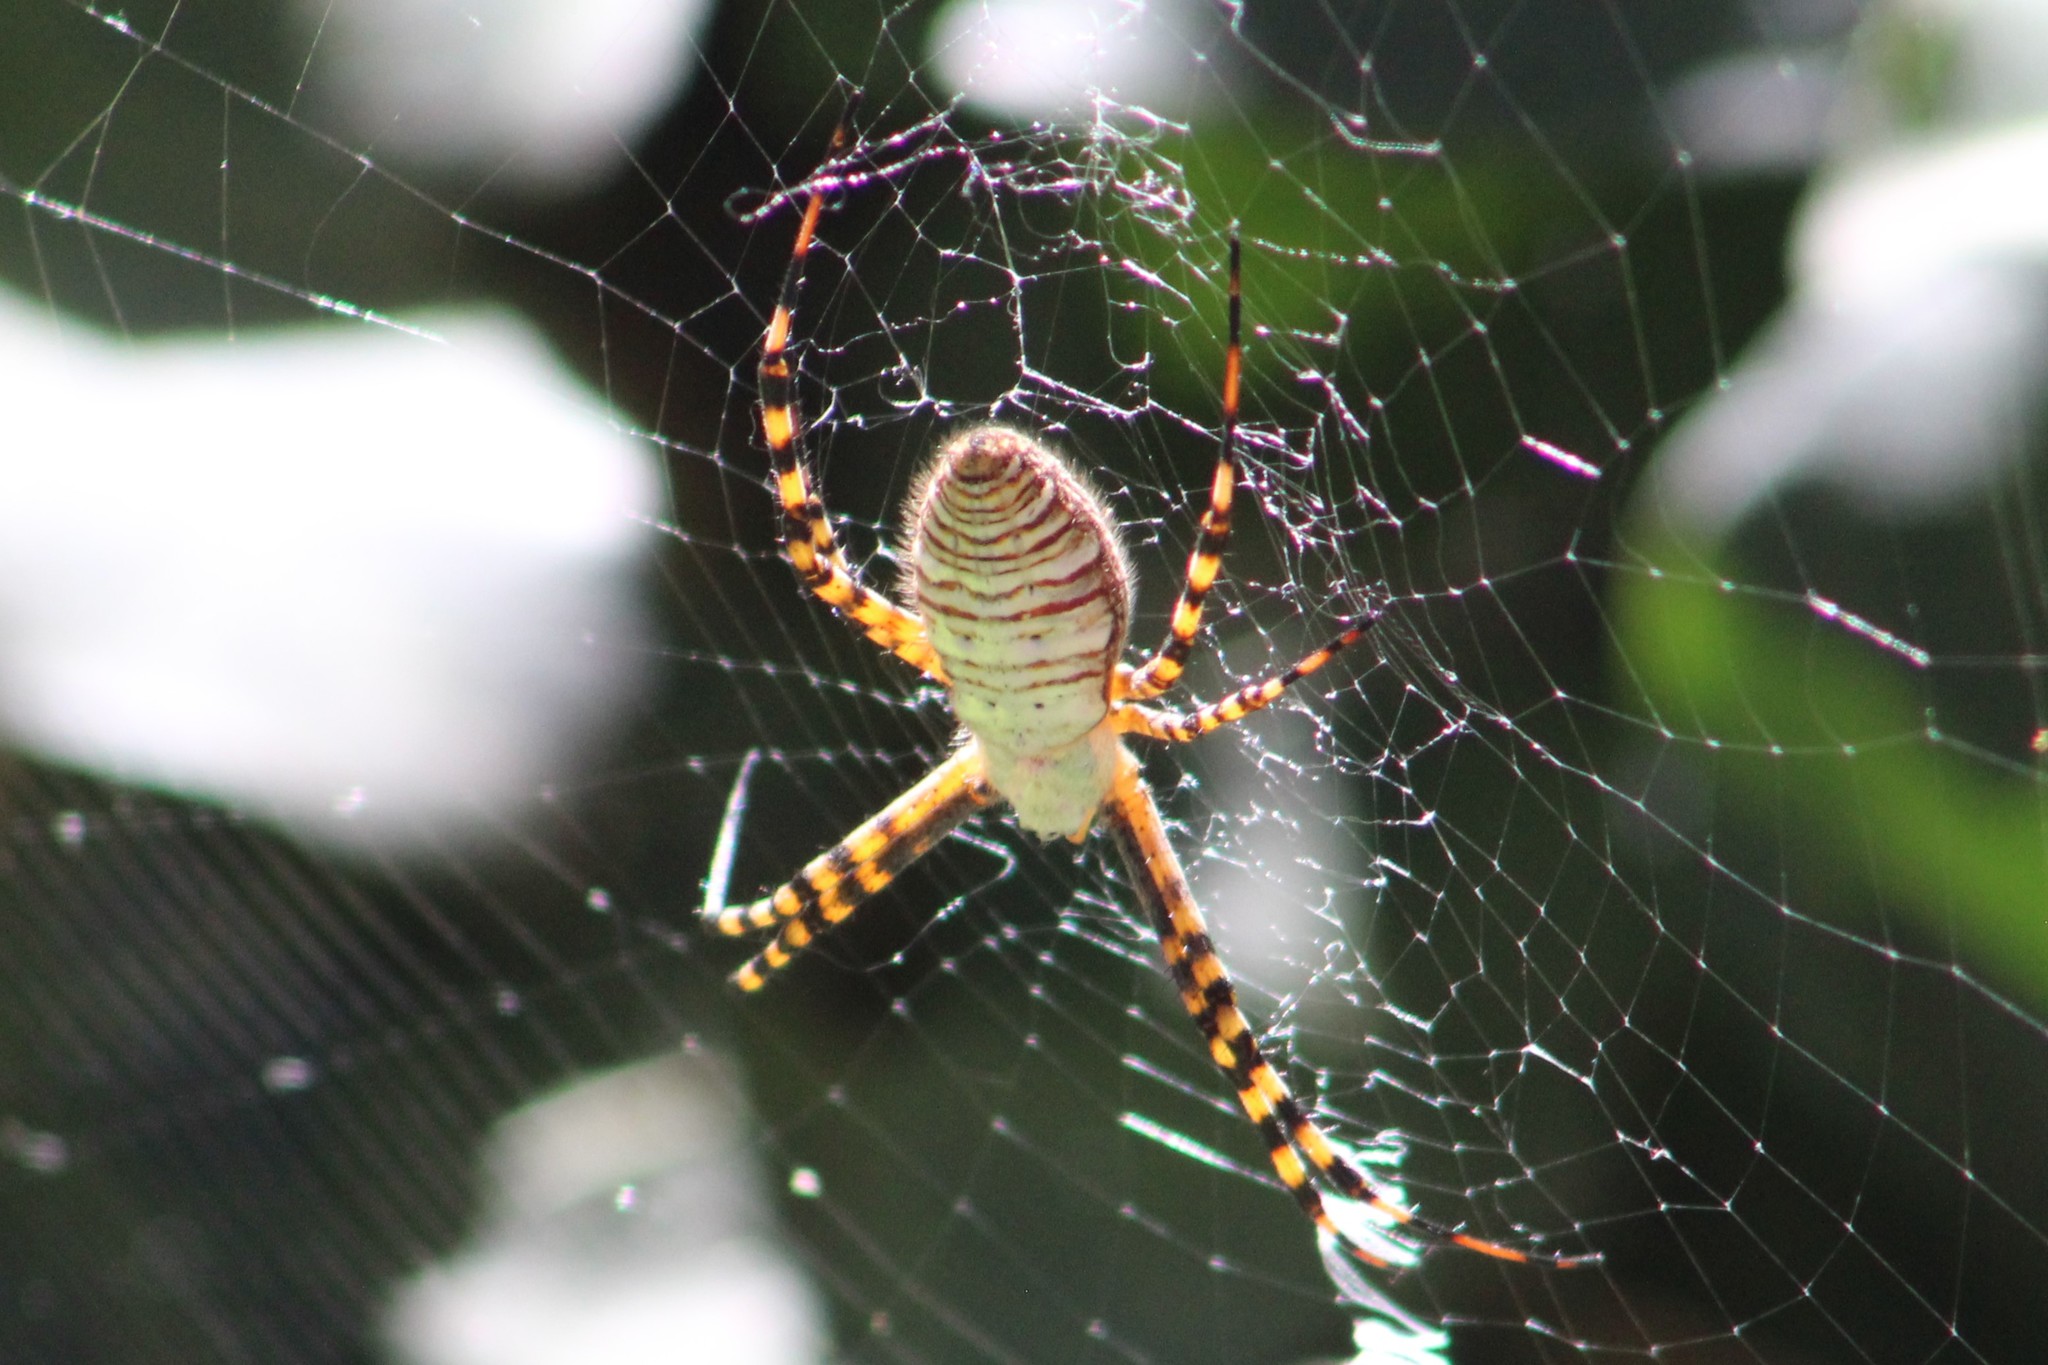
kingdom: Animalia
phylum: Arthropoda
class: Arachnida
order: Araneae
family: Araneidae
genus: Argiope
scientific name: Argiope trifasciata
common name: Banded garden spider
